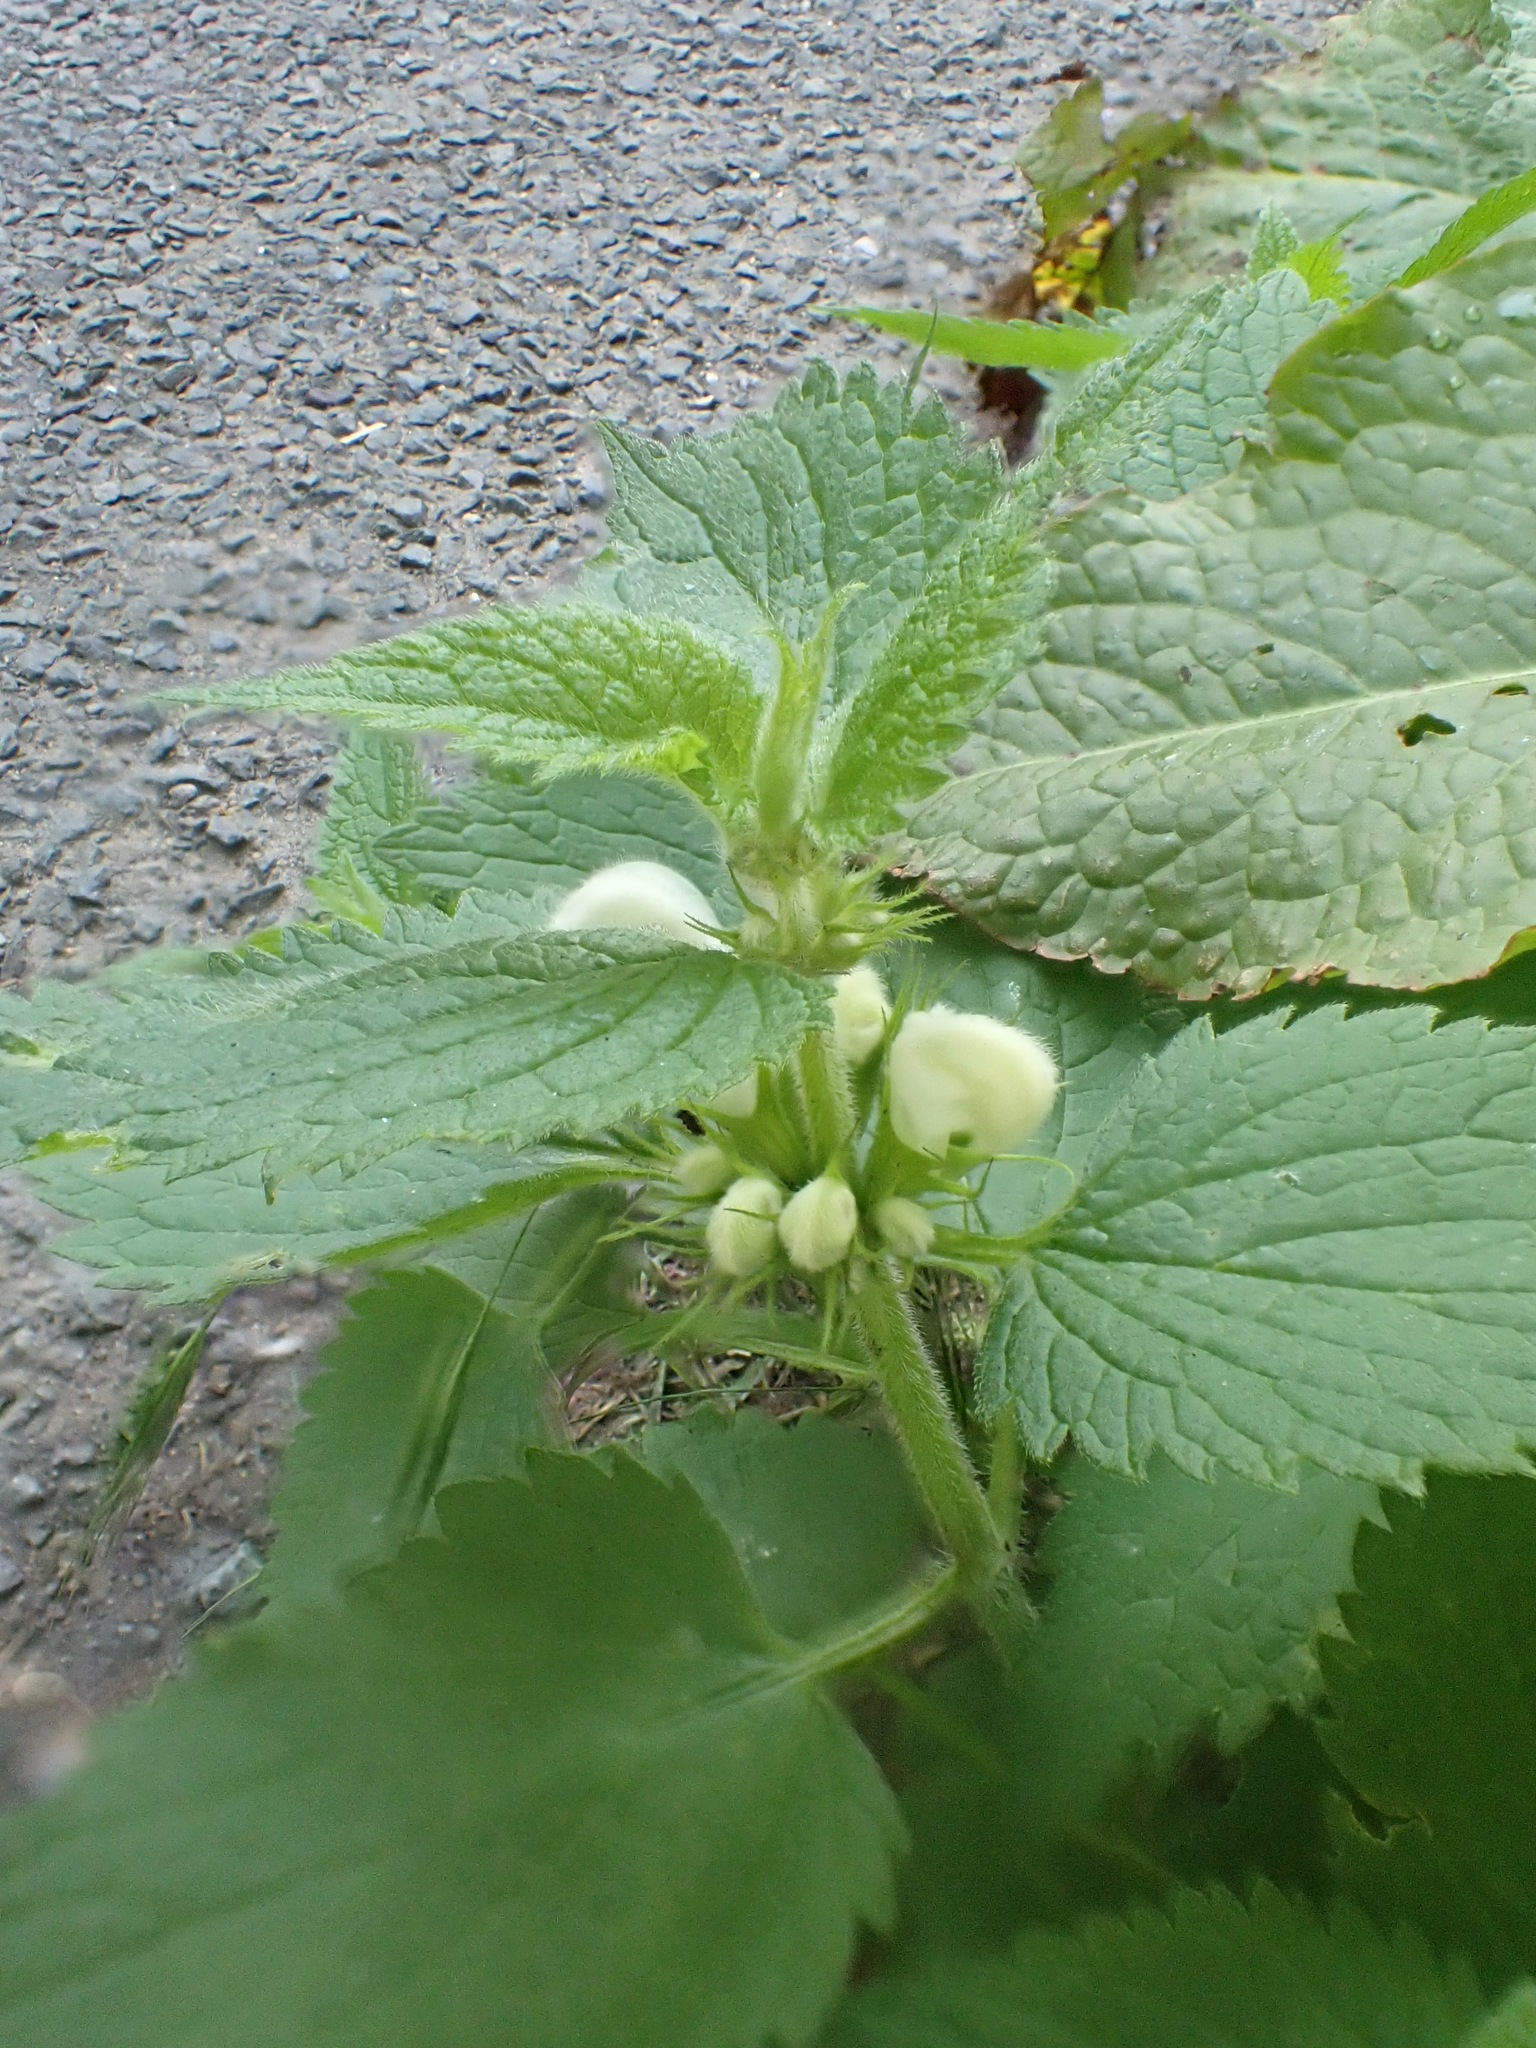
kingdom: Plantae
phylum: Tracheophyta
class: Magnoliopsida
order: Lamiales
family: Lamiaceae
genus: Lamium
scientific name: Lamium album
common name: White dead-nettle
